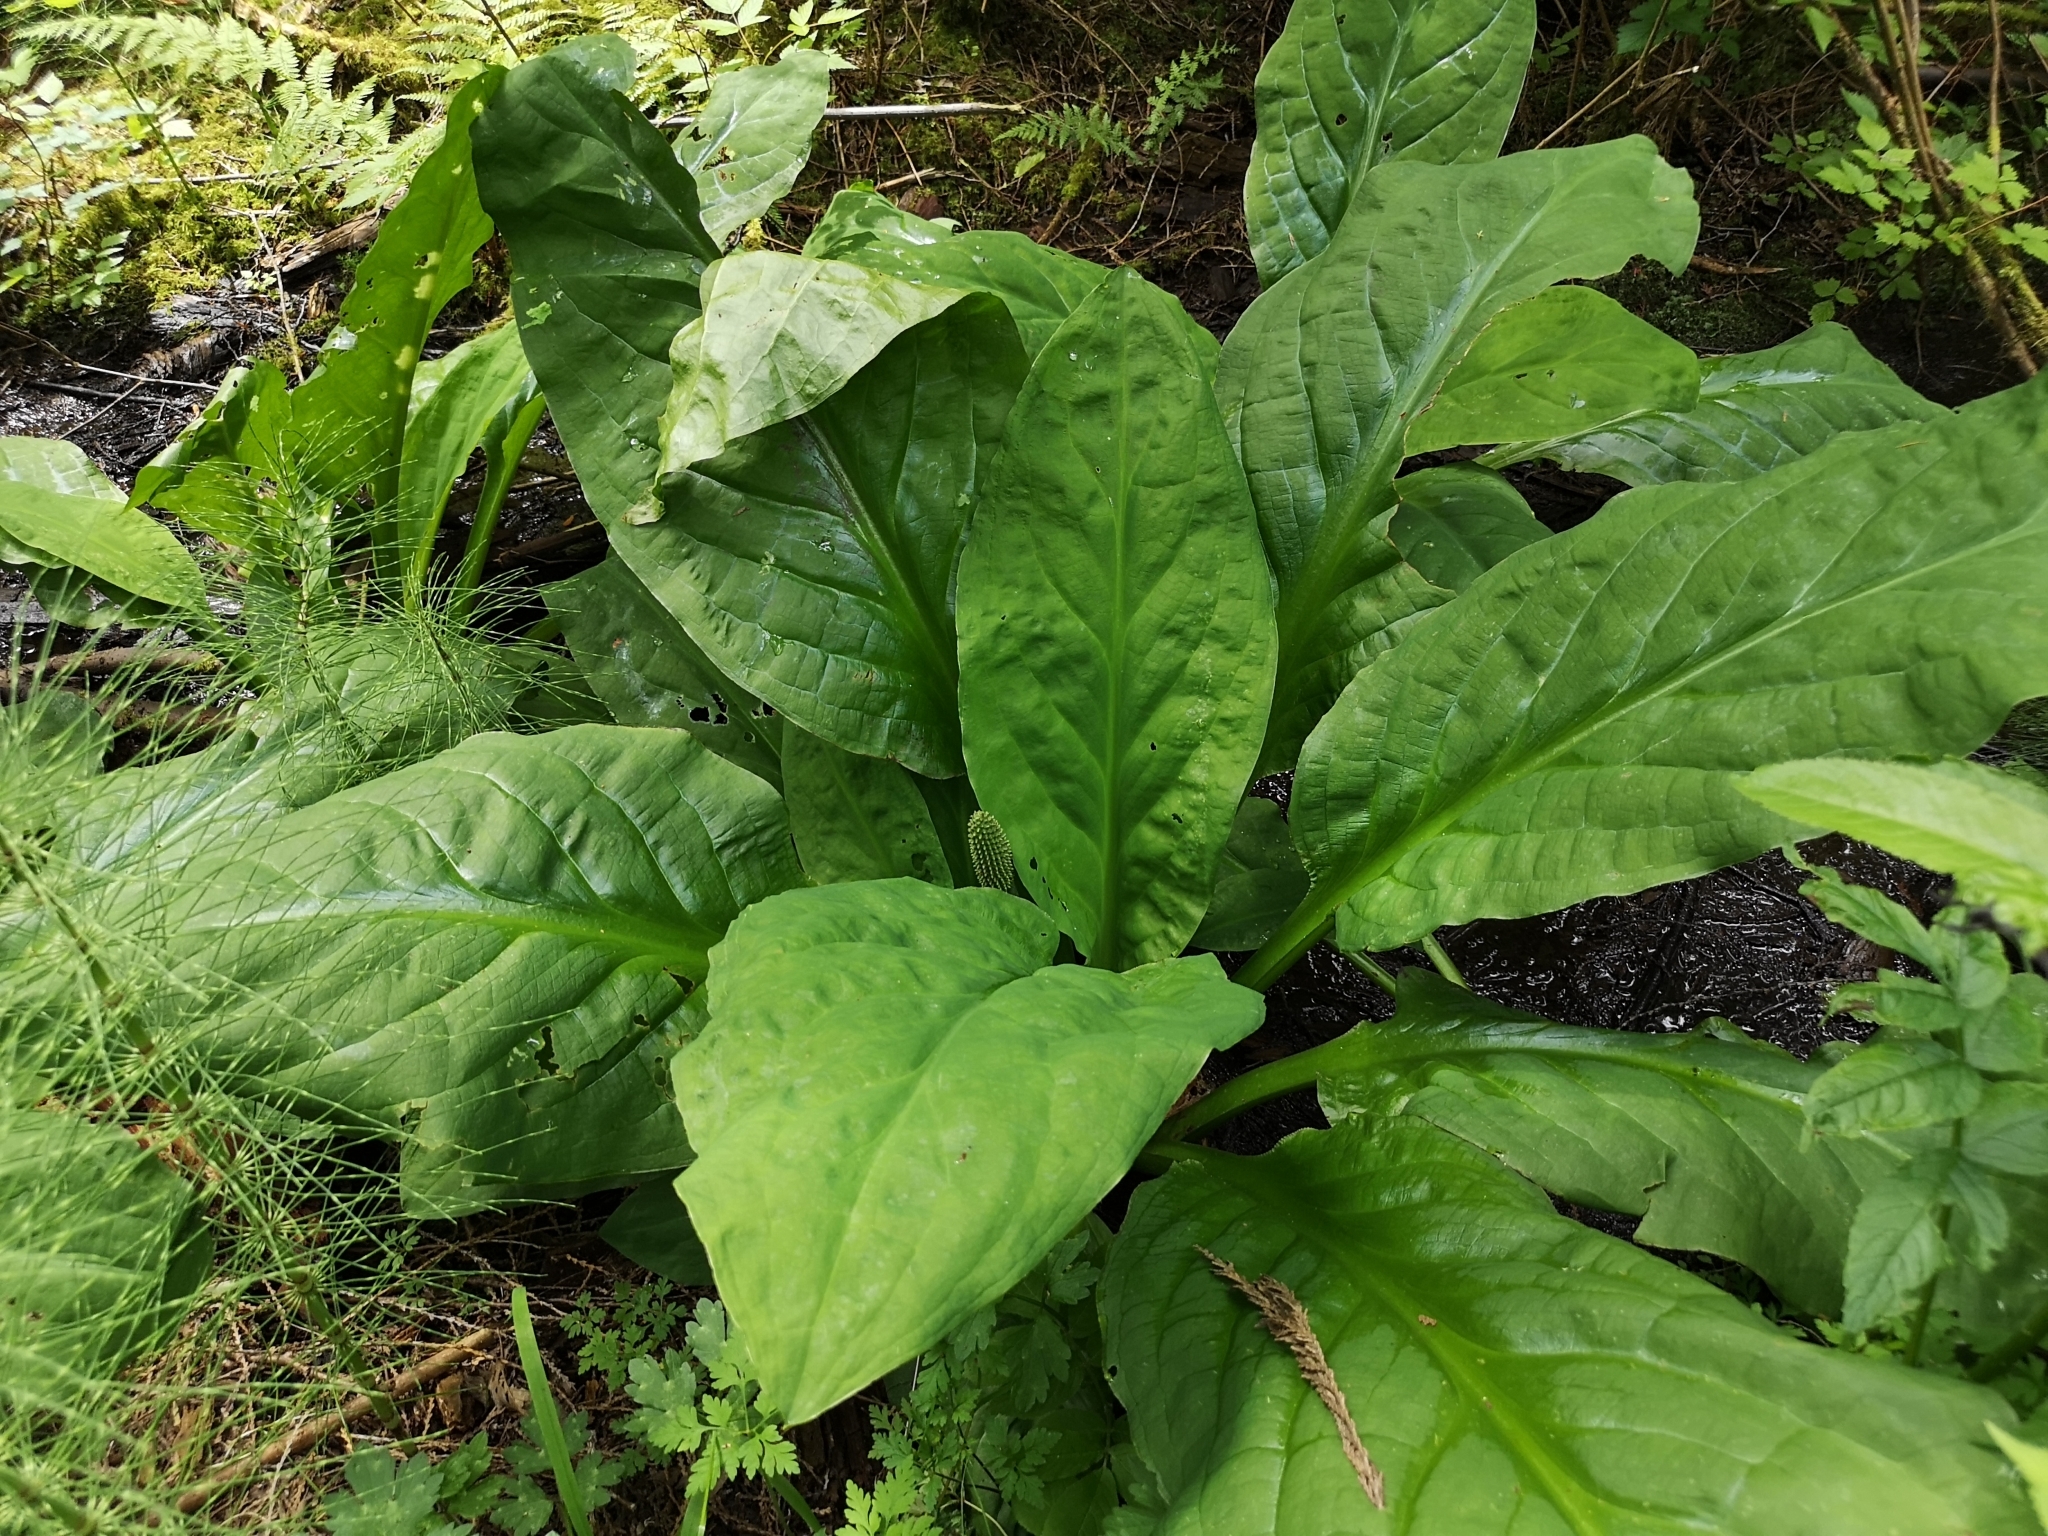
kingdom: Plantae
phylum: Tracheophyta
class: Liliopsida
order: Alismatales
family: Araceae
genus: Lysichiton
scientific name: Lysichiton americanus
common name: American skunk cabbage
